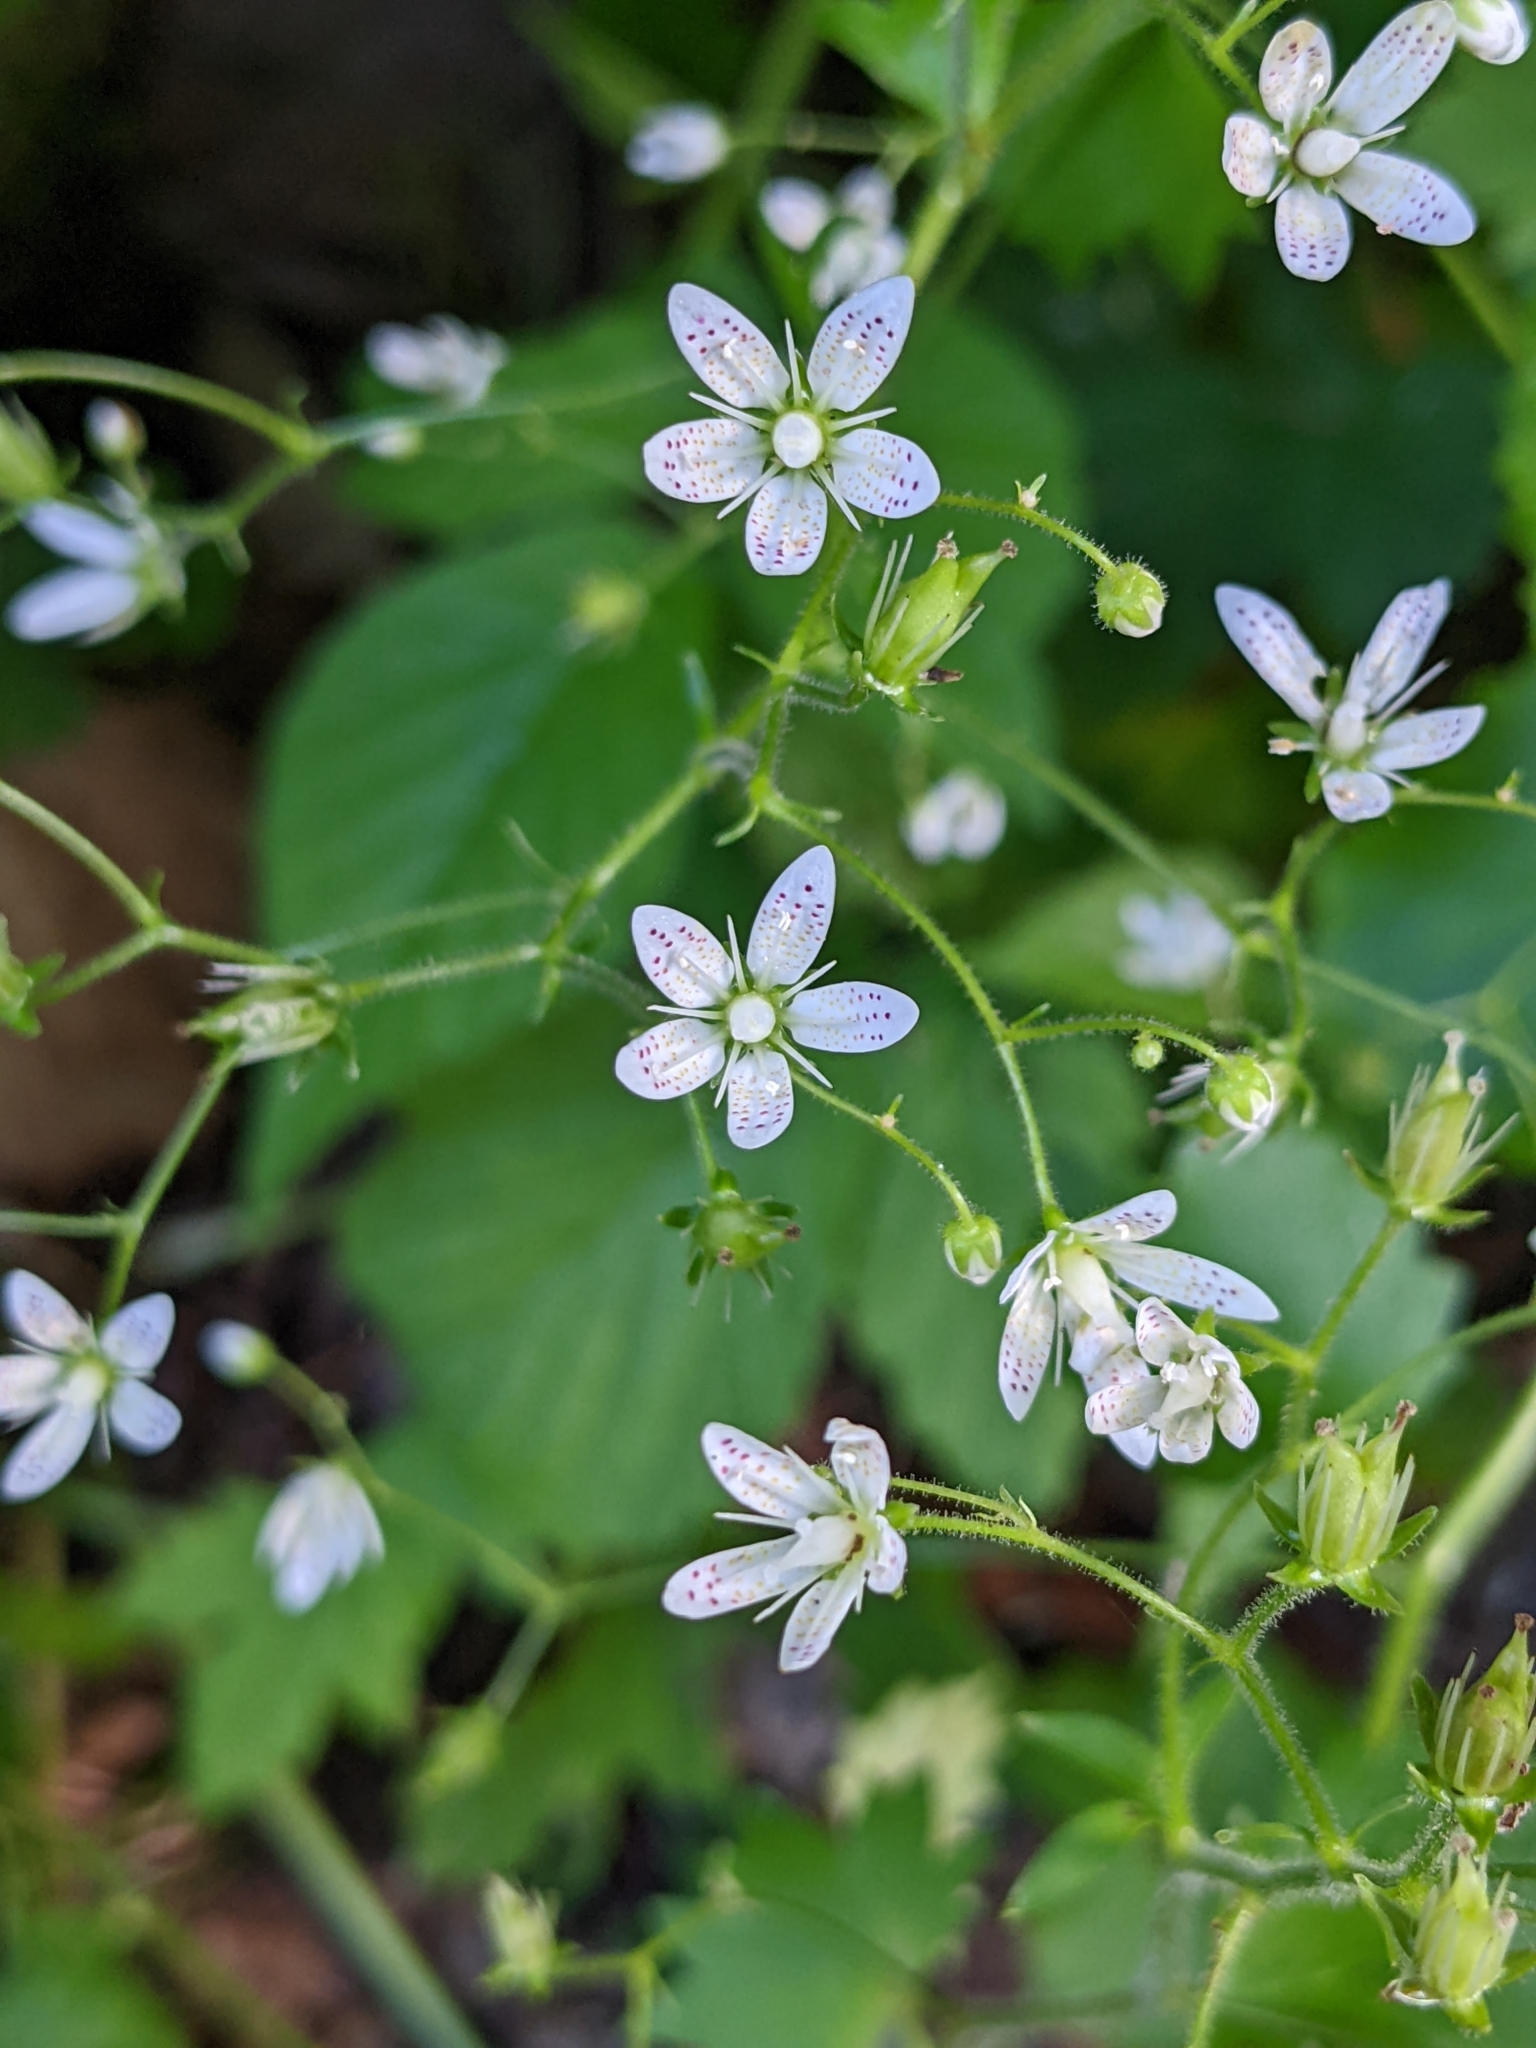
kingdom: Plantae
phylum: Tracheophyta
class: Magnoliopsida
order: Saxifragales
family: Saxifragaceae
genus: Saxifraga
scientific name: Saxifraga rotundifolia
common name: Round-leaved saxifrage
